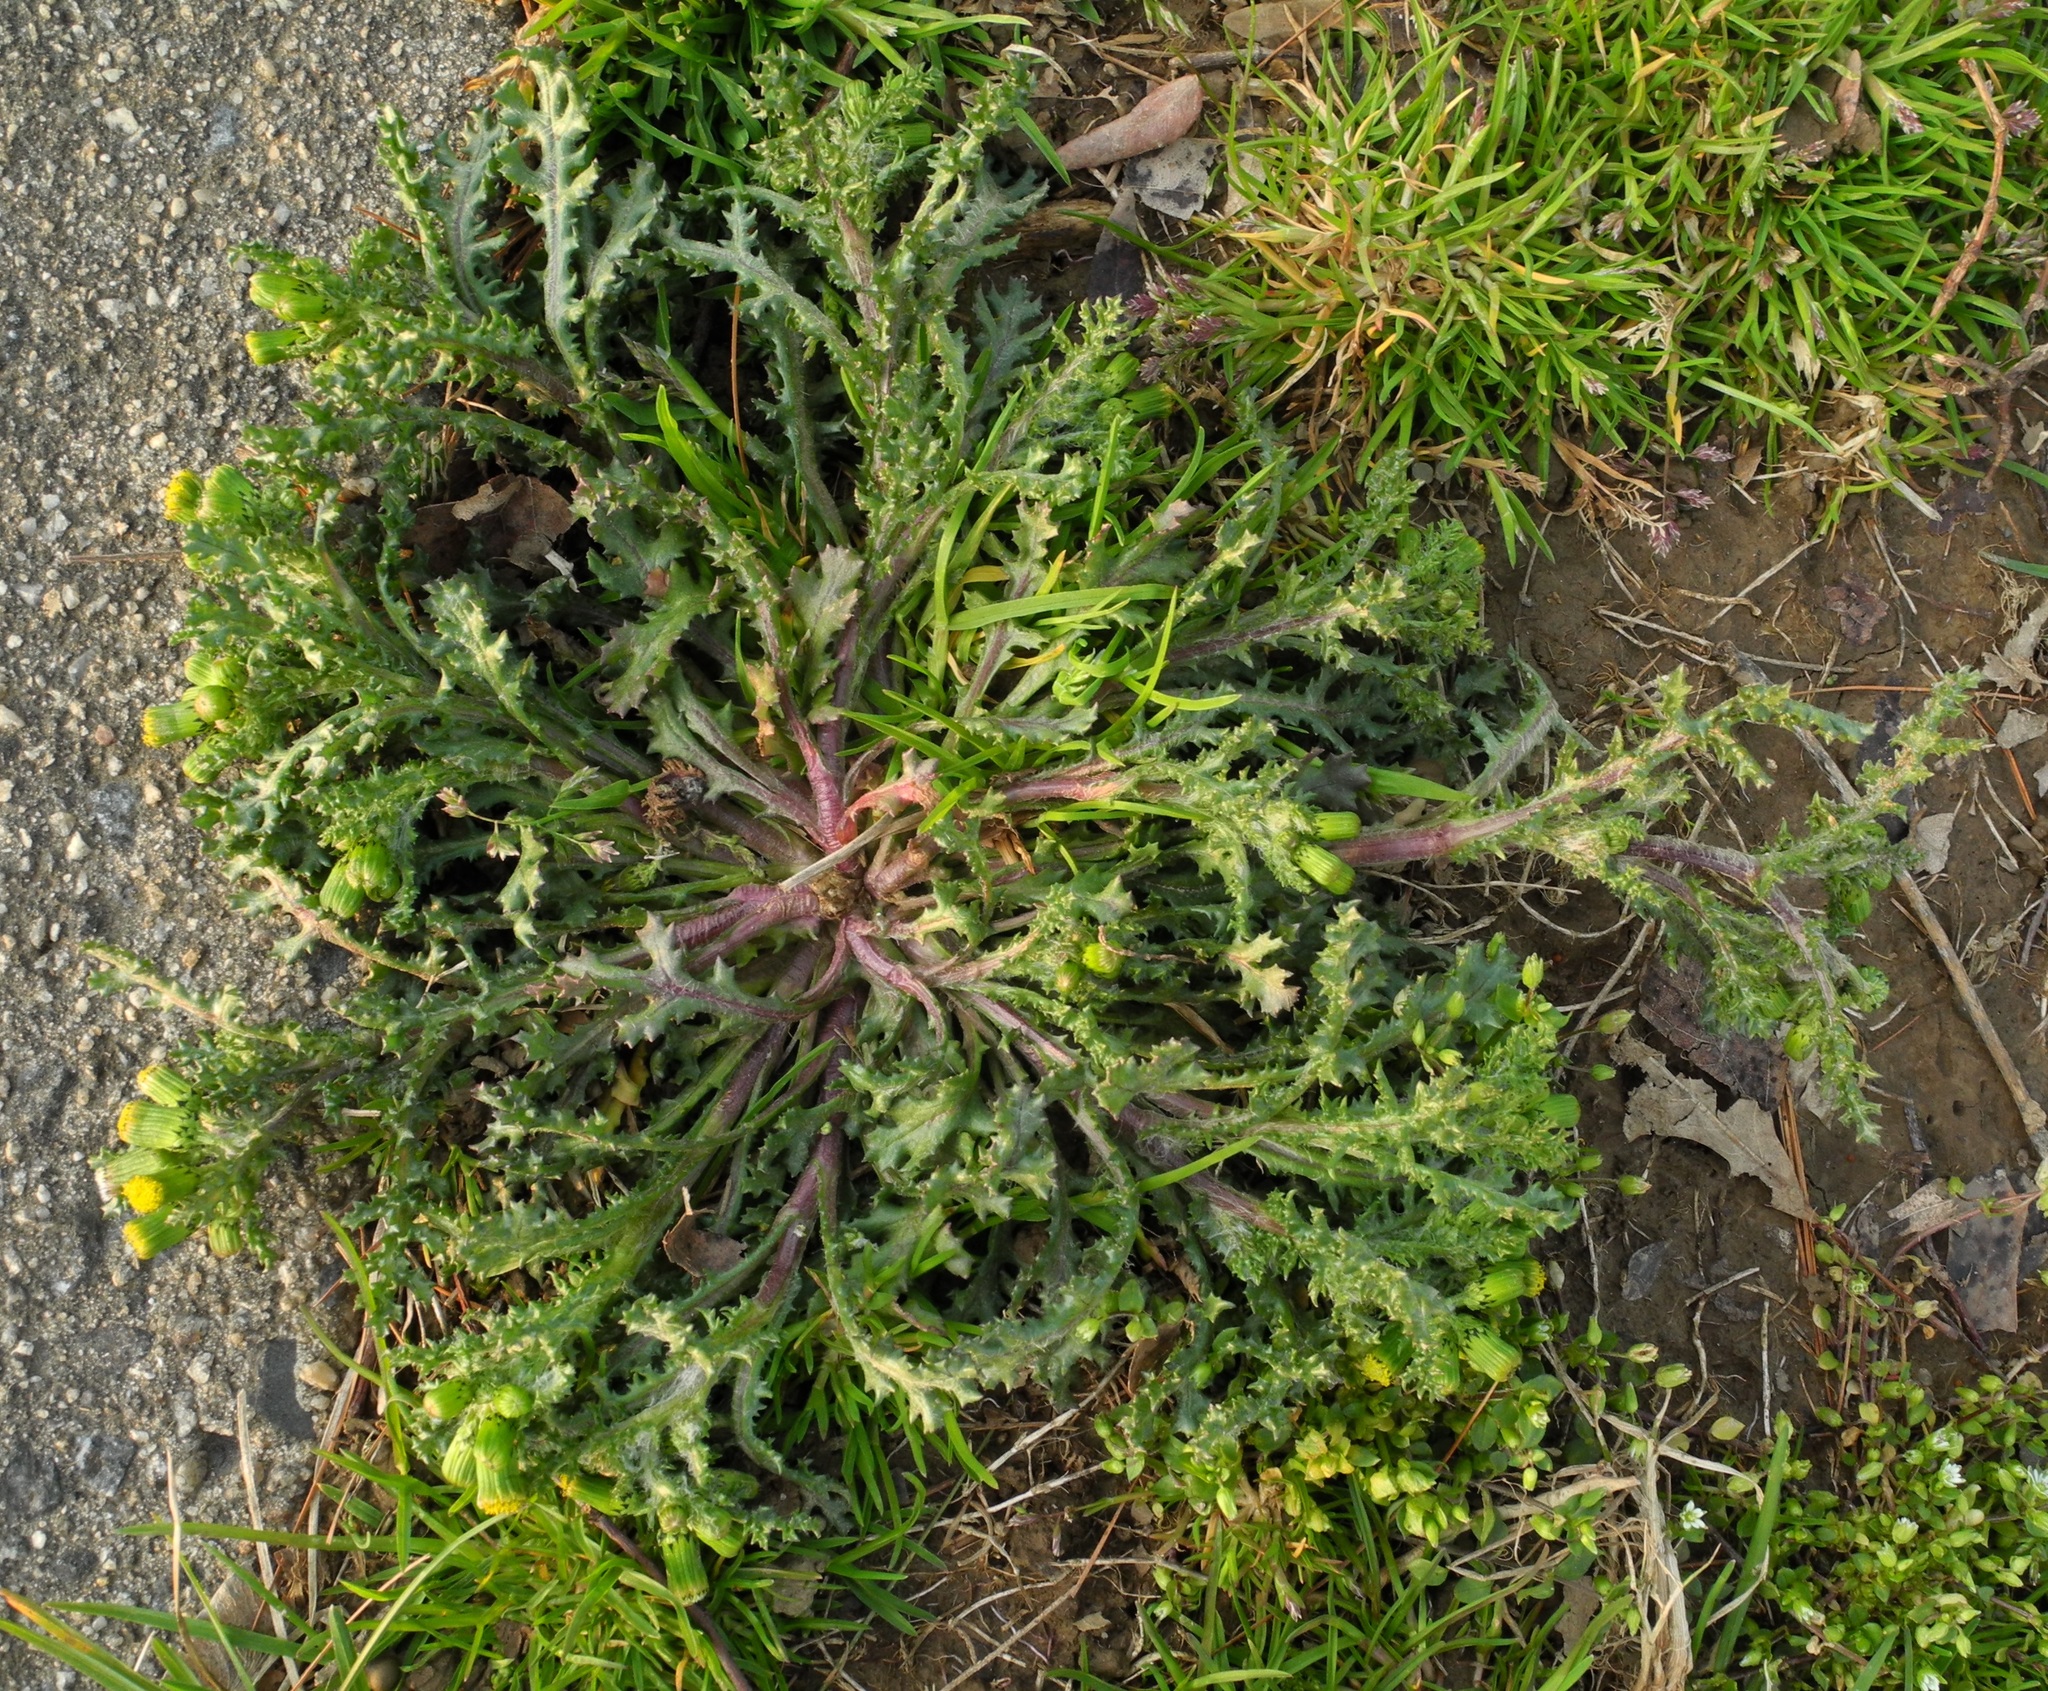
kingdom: Plantae
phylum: Tracheophyta
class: Magnoliopsida
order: Asterales
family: Asteraceae
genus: Senecio
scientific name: Senecio vulgaris
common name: Old-man-in-the-spring
